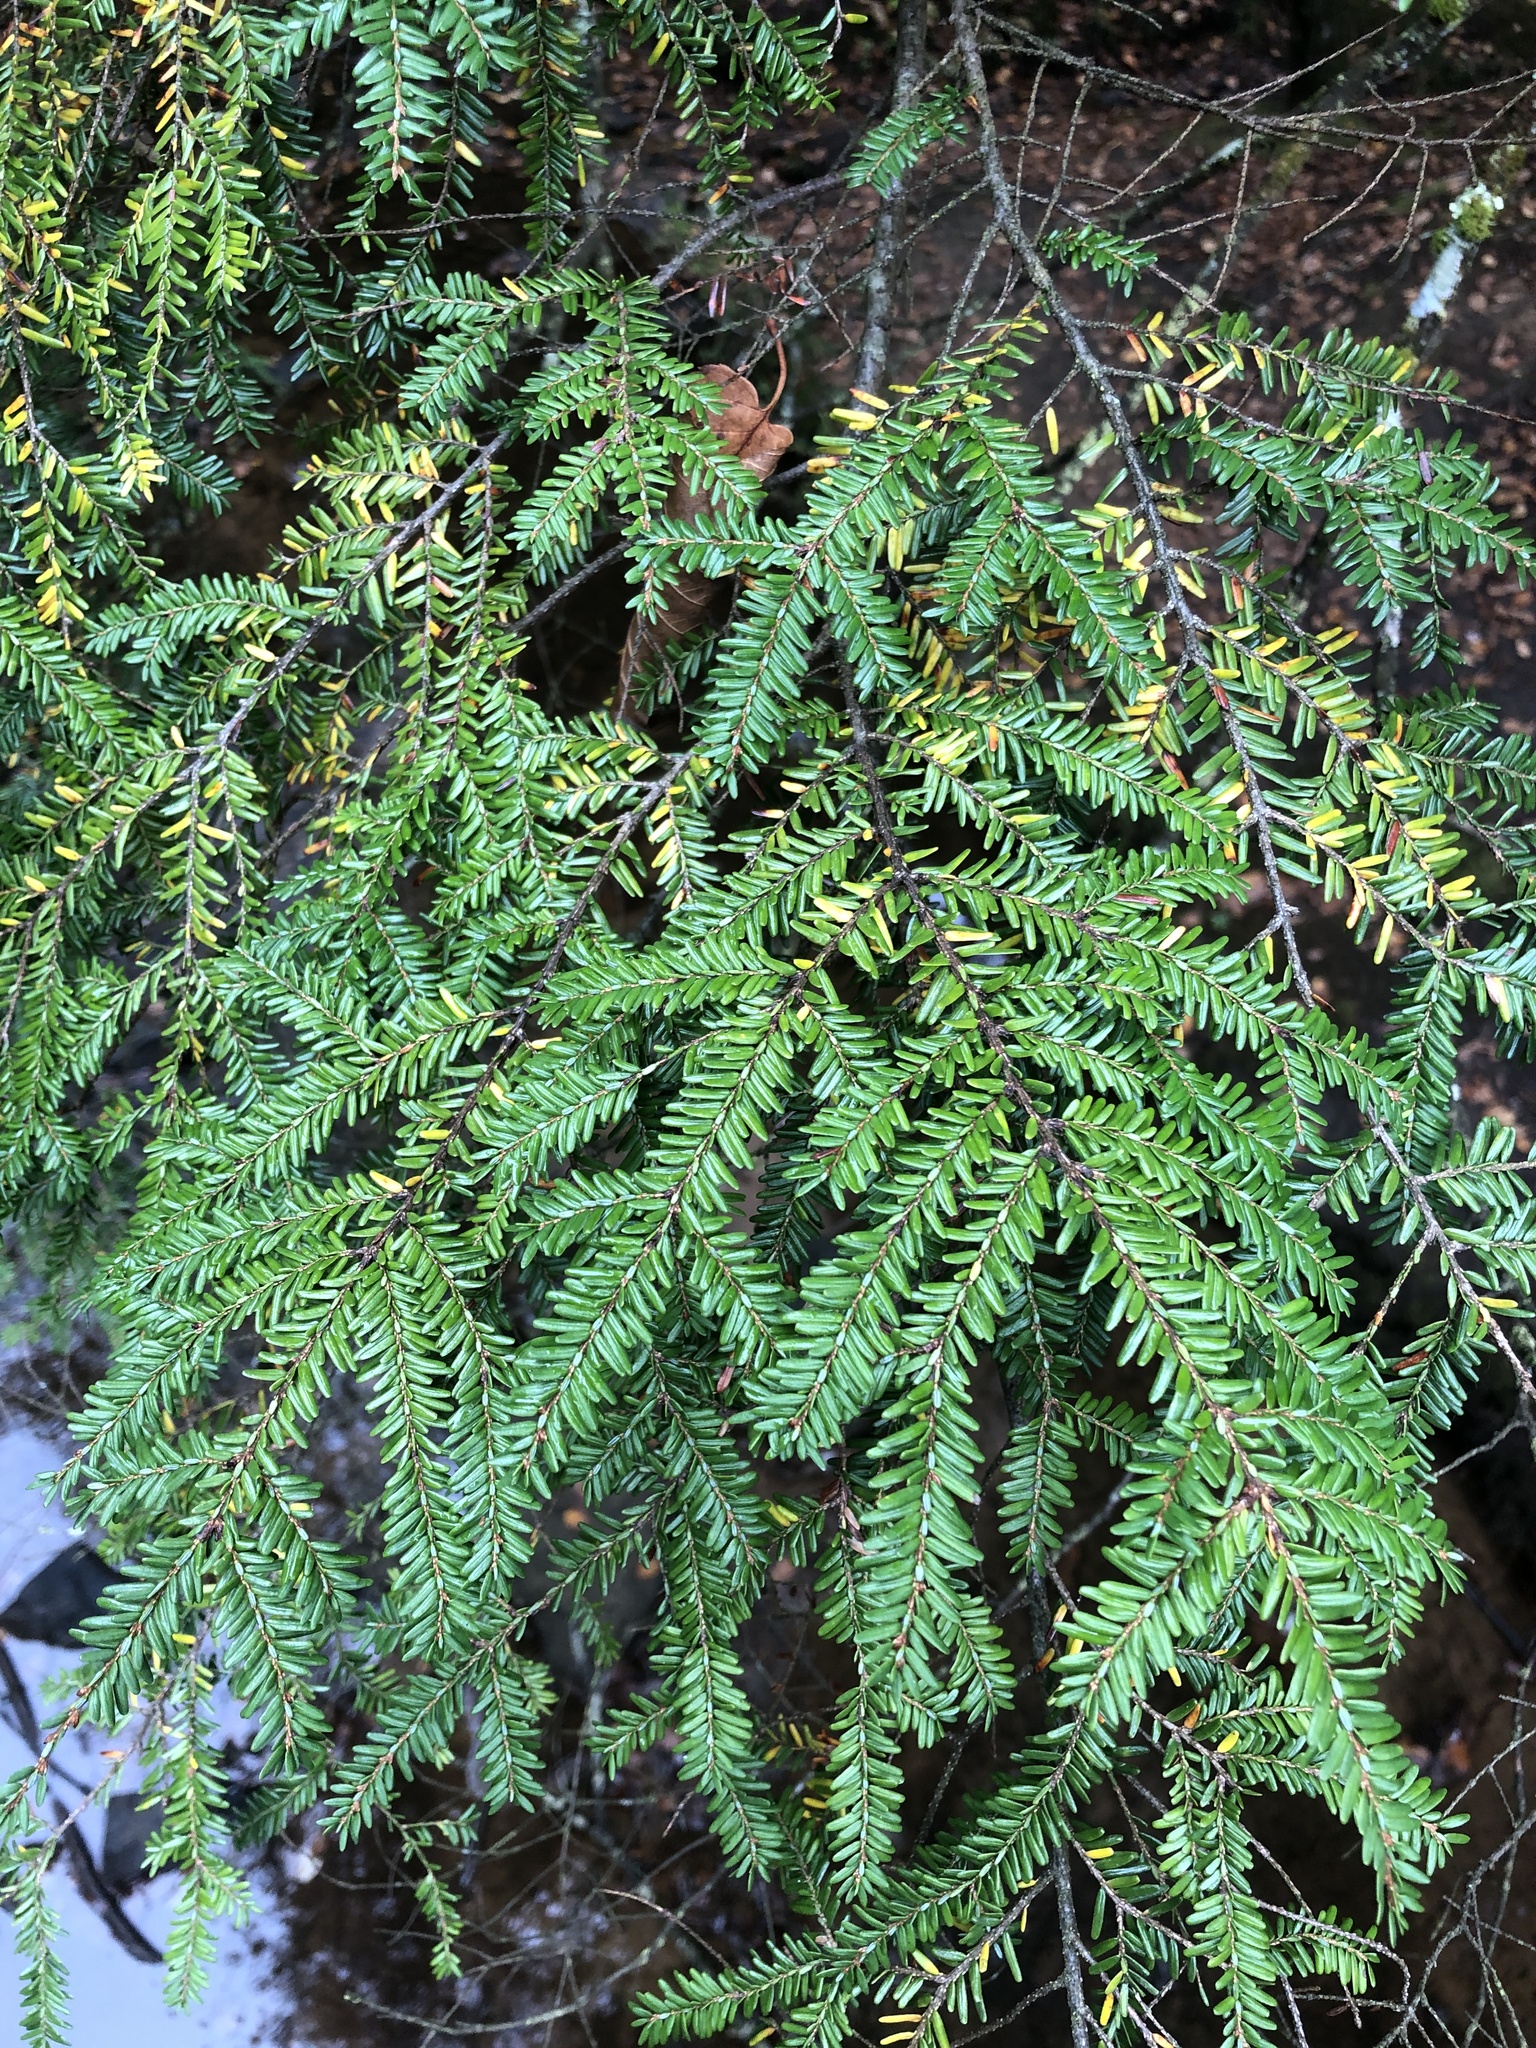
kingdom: Plantae
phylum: Tracheophyta
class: Pinopsida
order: Pinales
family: Pinaceae
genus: Tsuga
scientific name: Tsuga canadensis
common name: Eastern hemlock
